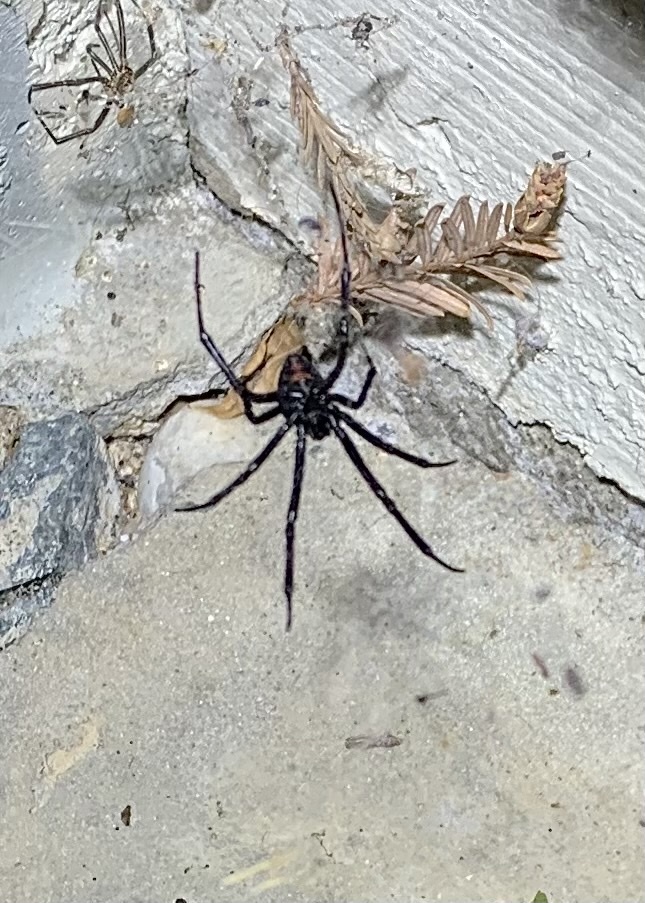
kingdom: Animalia
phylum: Arthropoda
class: Arachnida
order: Araneae
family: Theridiidae
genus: Latrodectus
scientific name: Latrodectus hesperus
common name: Western black widow
